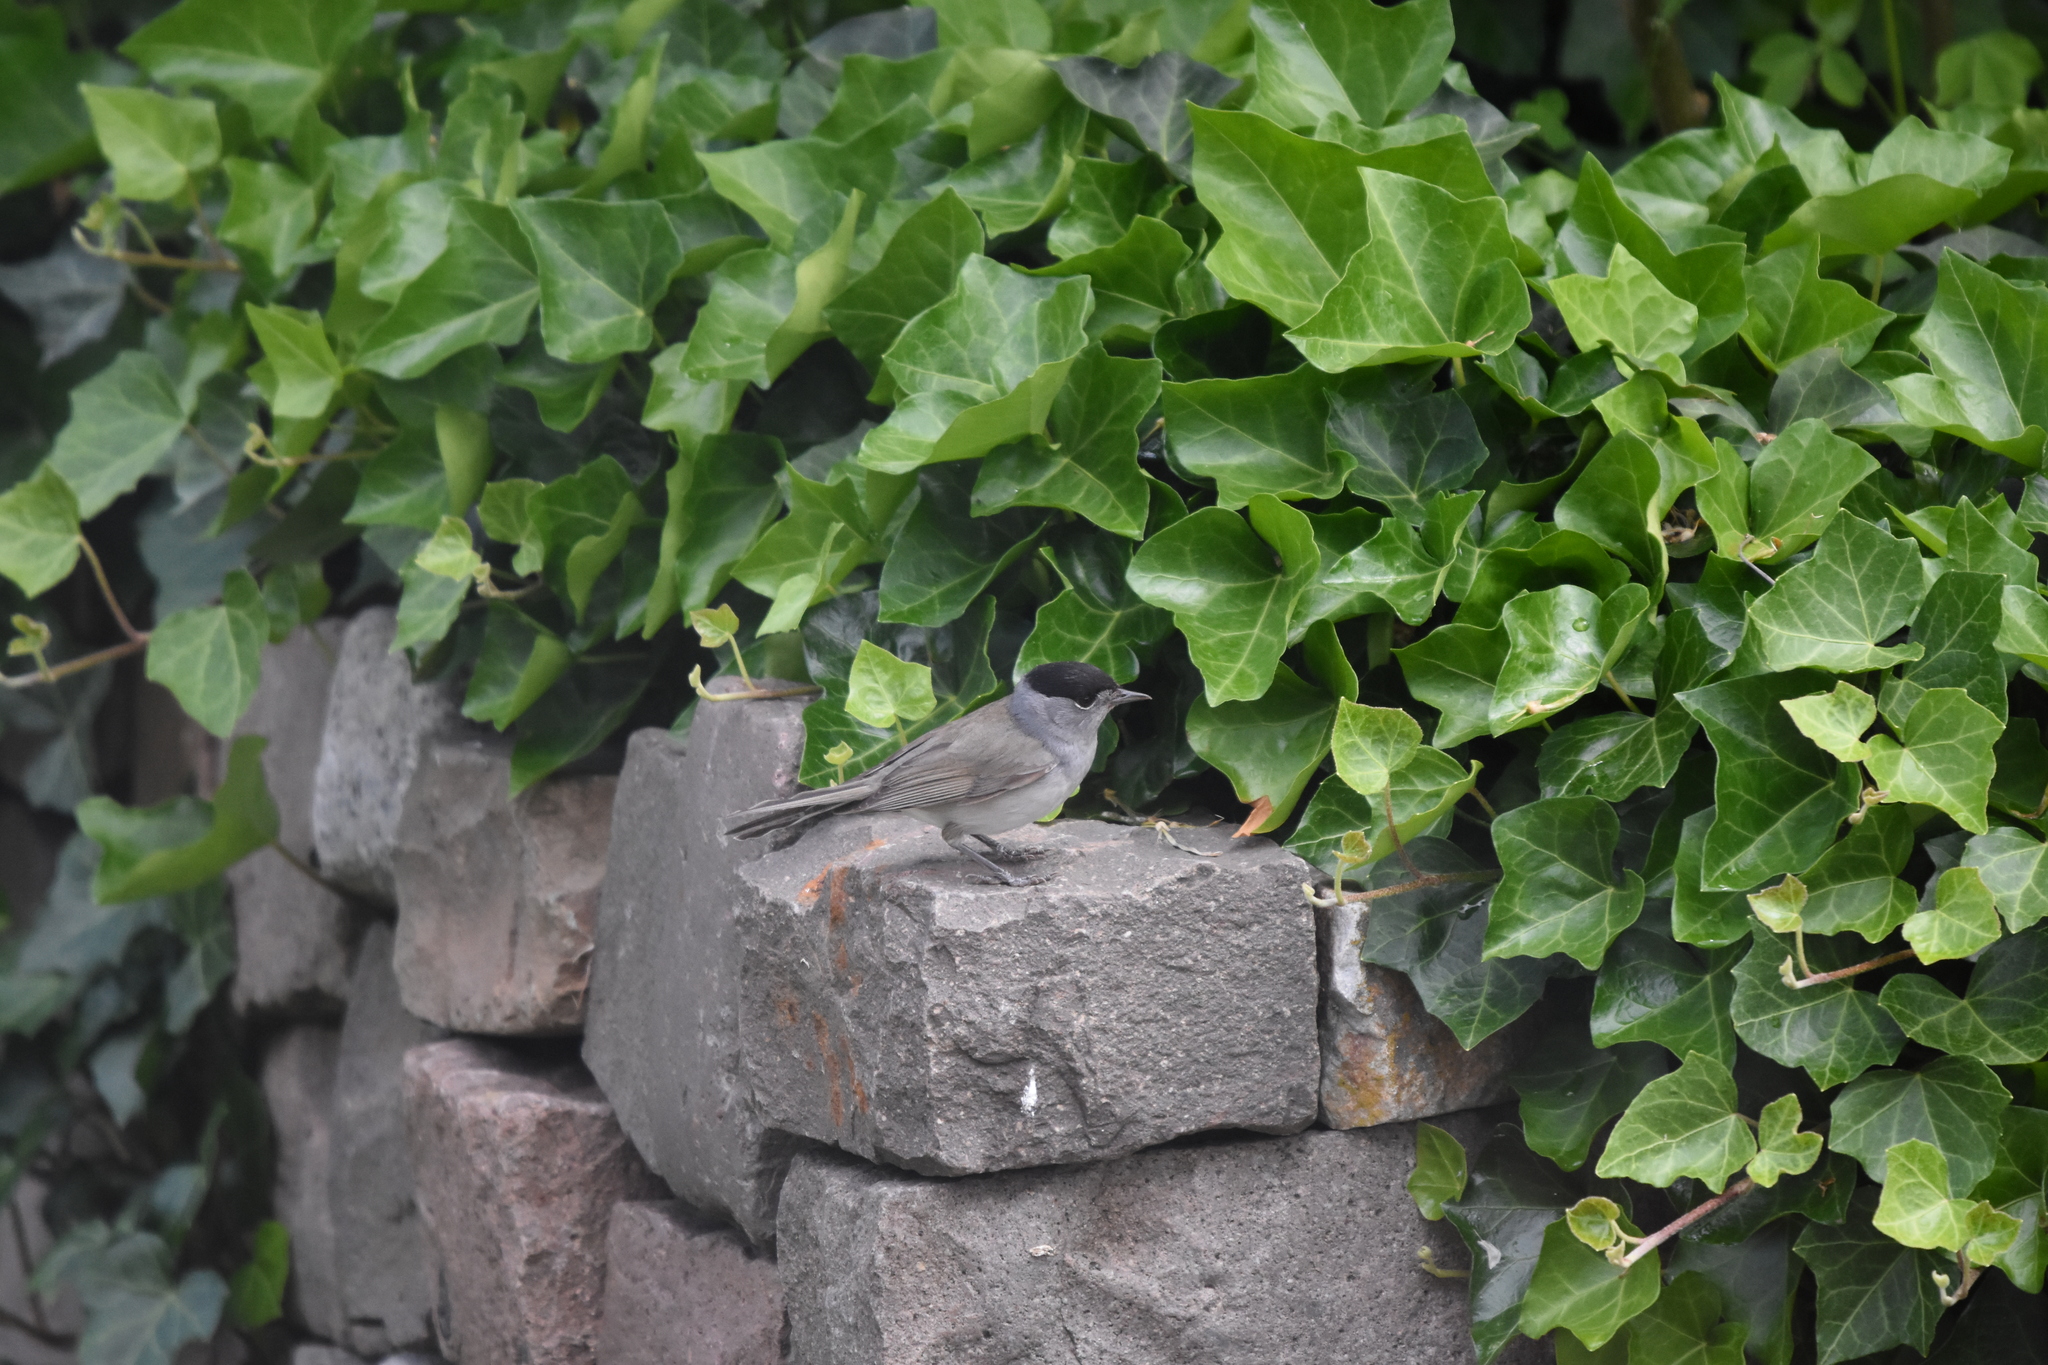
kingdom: Animalia
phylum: Chordata
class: Aves
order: Passeriformes
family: Sylviidae
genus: Sylvia
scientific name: Sylvia atricapilla
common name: Eurasian blackcap
